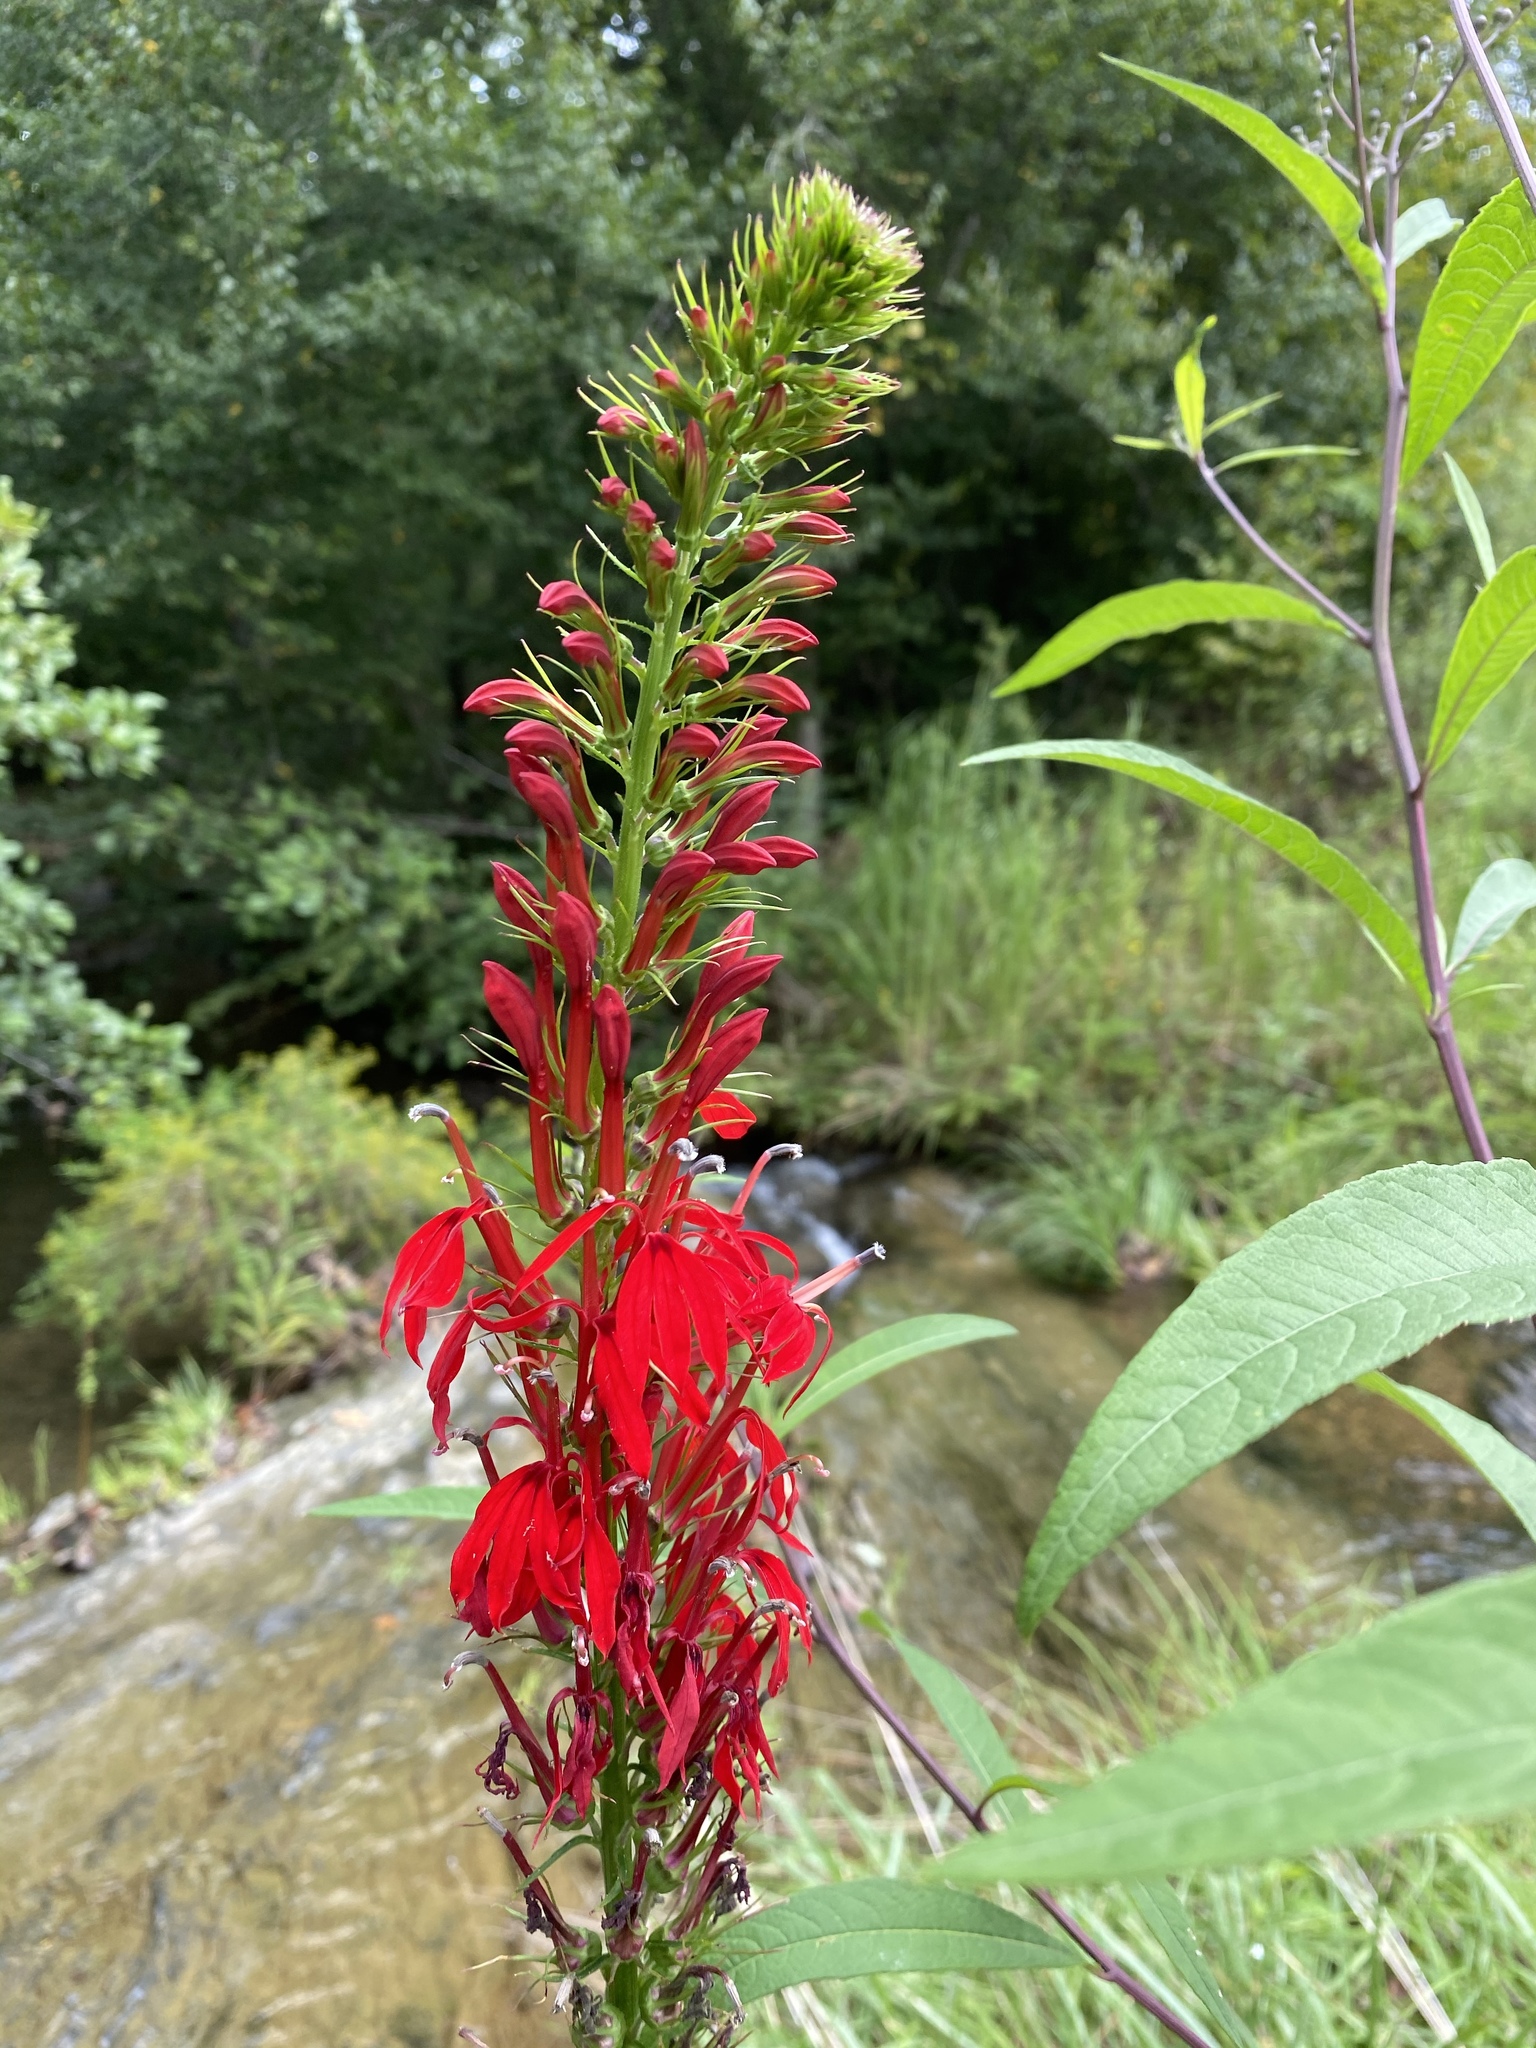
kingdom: Plantae
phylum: Tracheophyta
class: Magnoliopsida
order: Asterales
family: Campanulaceae
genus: Lobelia
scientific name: Lobelia cardinalis
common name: Cardinal flower
